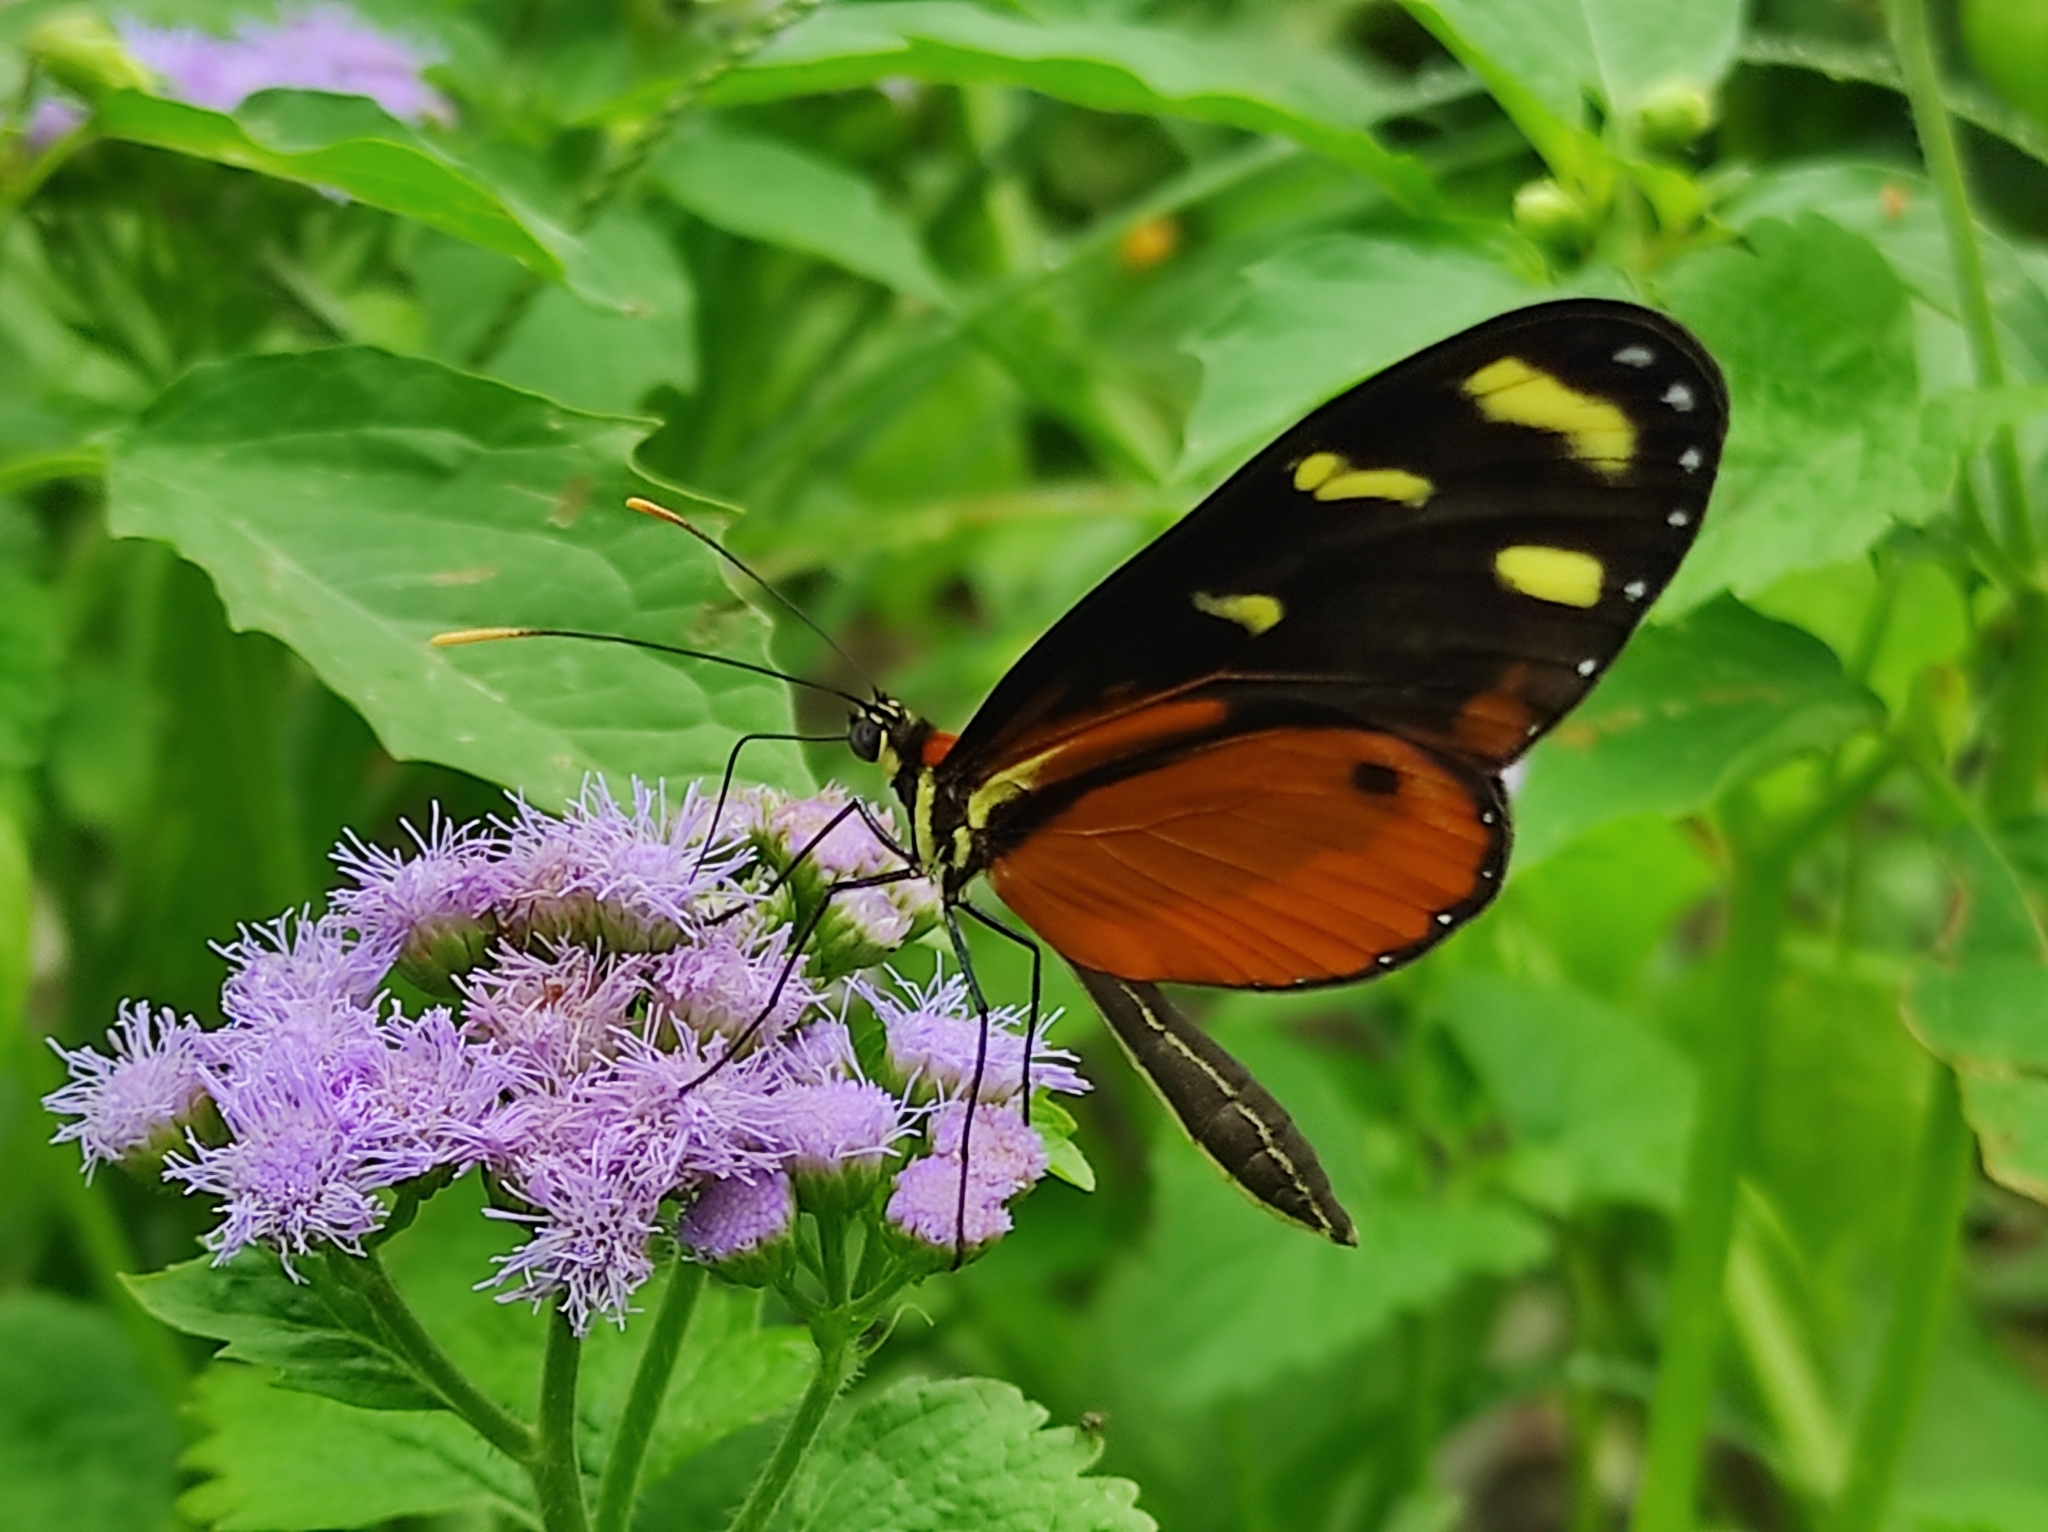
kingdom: Animalia
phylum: Arthropoda
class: Insecta
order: Lepidoptera
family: Nymphalidae
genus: Mechanitis
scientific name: Mechanitis polymnia
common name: Disturbed tigerwing
